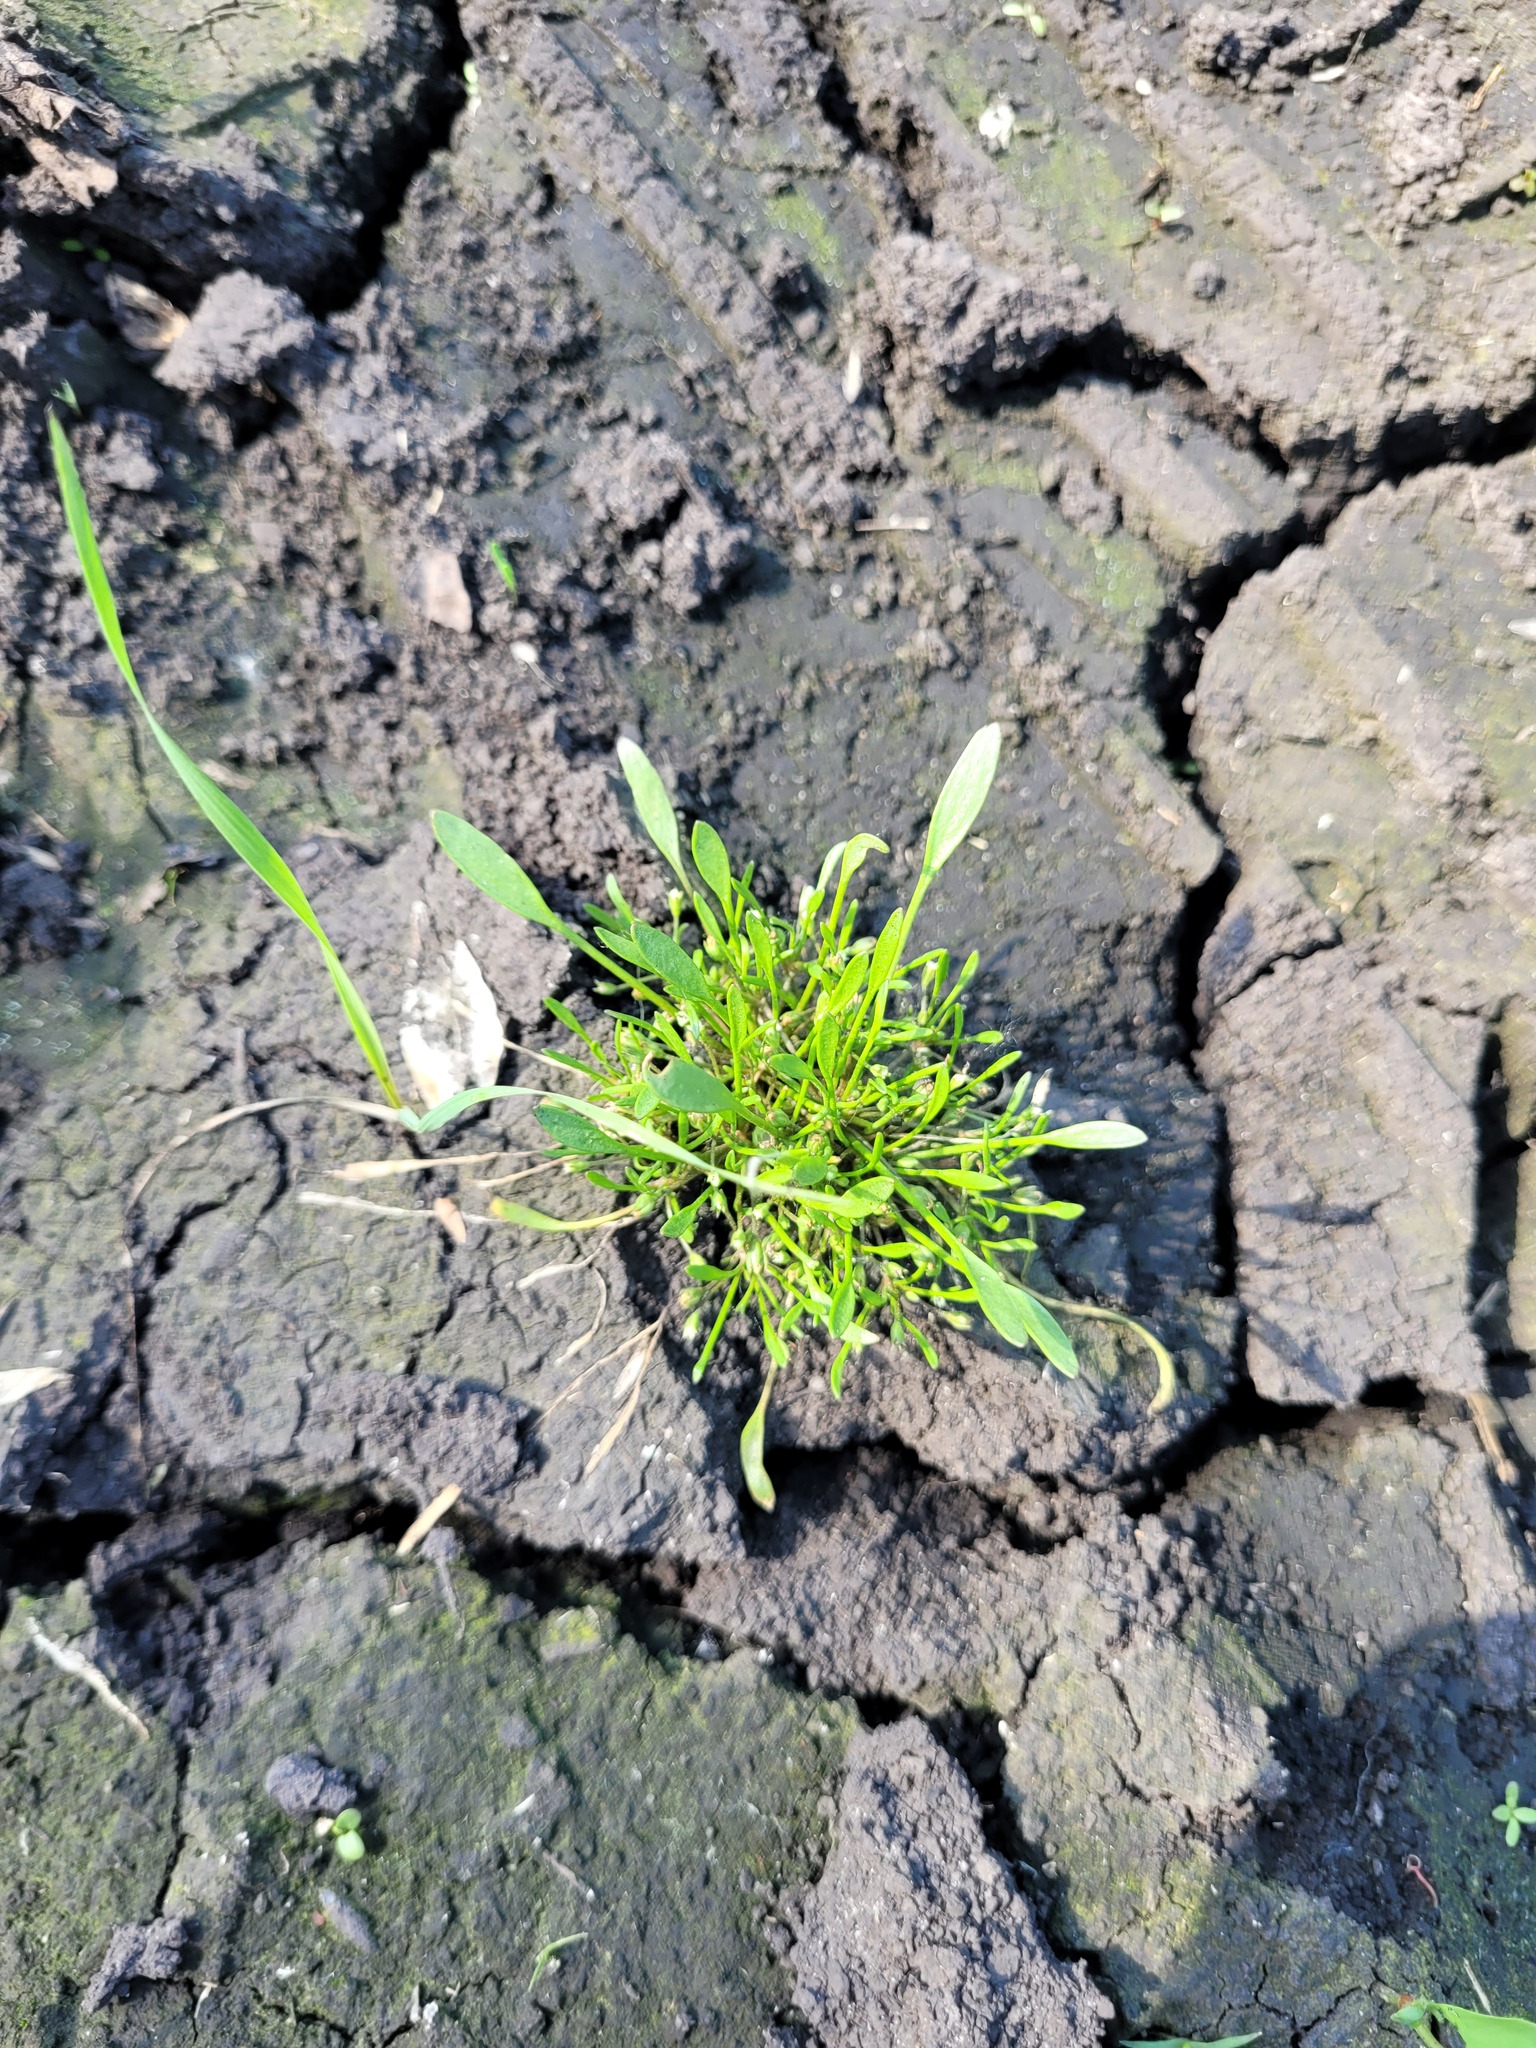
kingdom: Plantae
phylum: Tracheophyta
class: Magnoliopsida
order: Lamiales
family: Scrophulariaceae
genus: Limosella
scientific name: Limosella aquatica
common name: Mudwort
